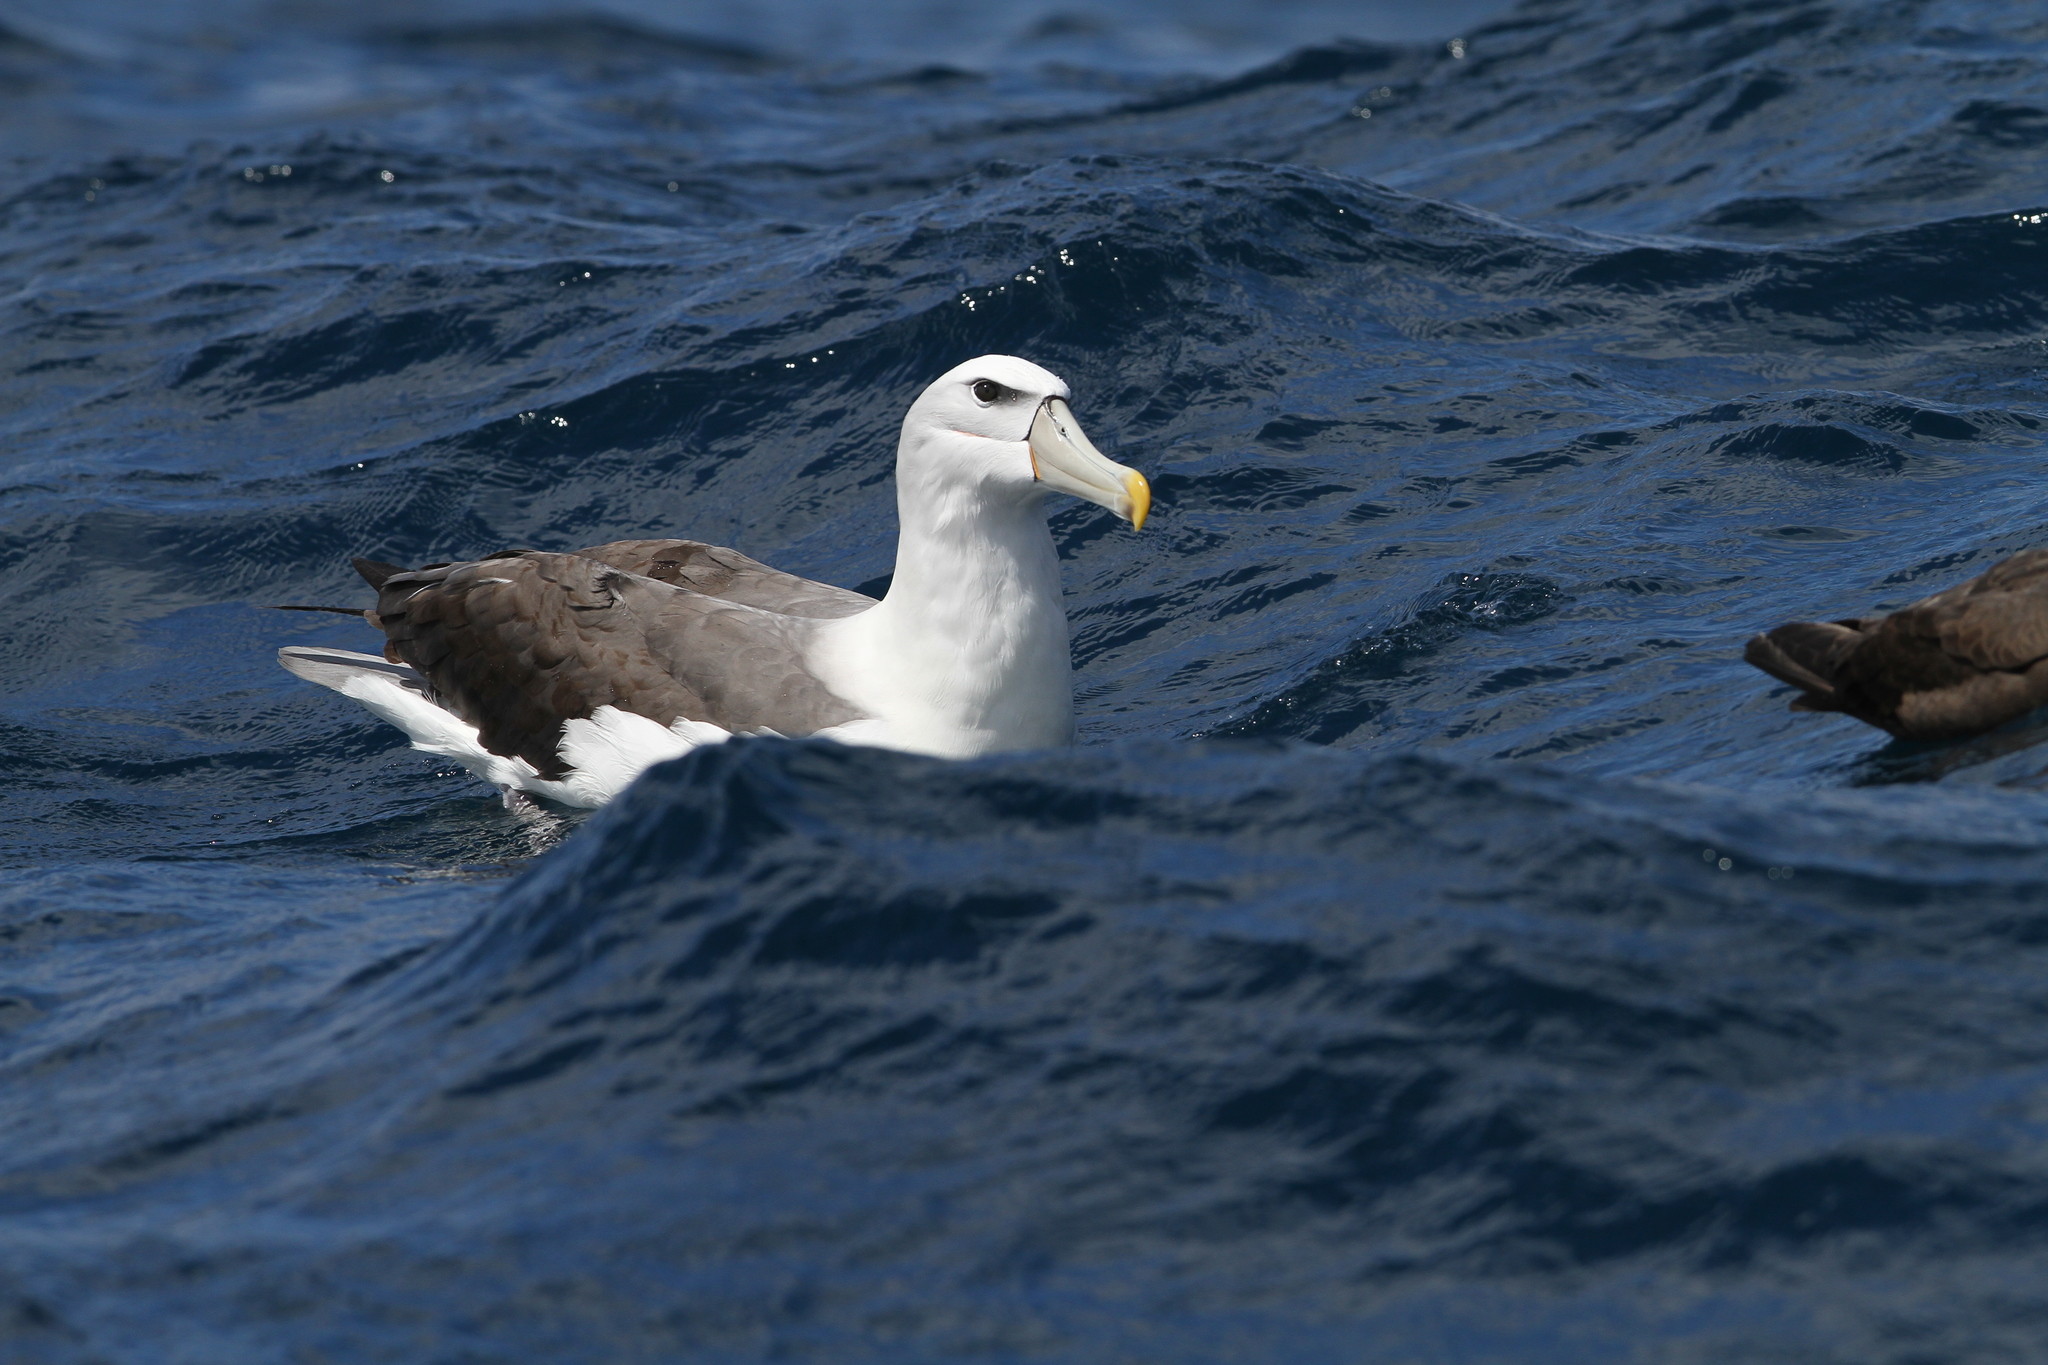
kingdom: Animalia
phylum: Chordata
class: Aves
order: Procellariiformes
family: Diomedeidae
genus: Thalassarche
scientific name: Thalassarche cauta
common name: Shy albatross
